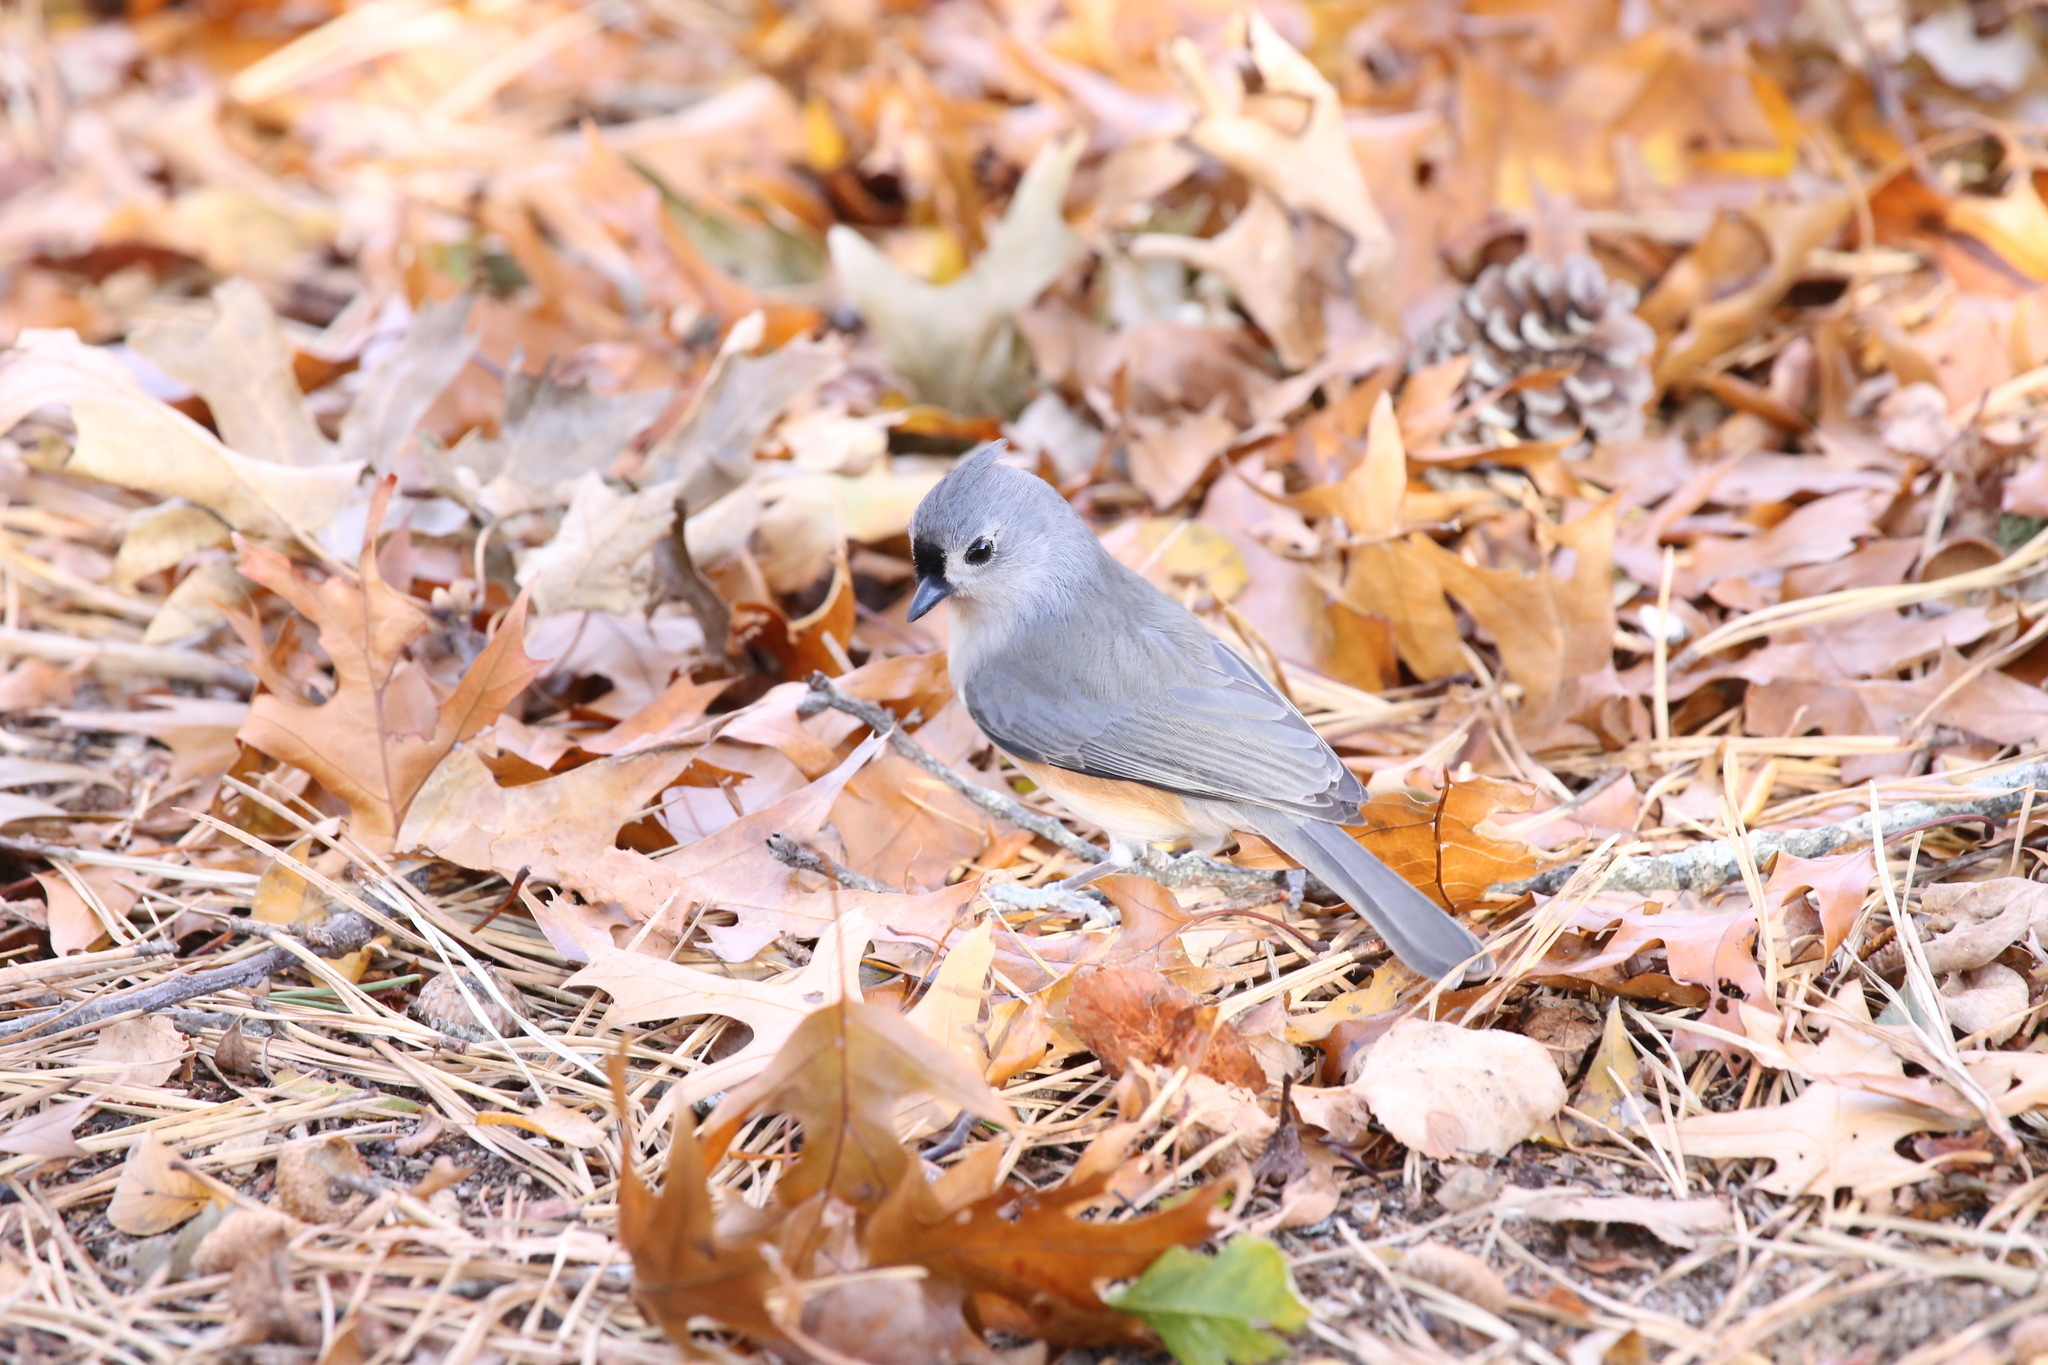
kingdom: Animalia
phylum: Chordata
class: Aves
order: Passeriformes
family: Paridae
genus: Baeolophus
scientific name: Baeolophus bicolor
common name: Tufted titmouse
